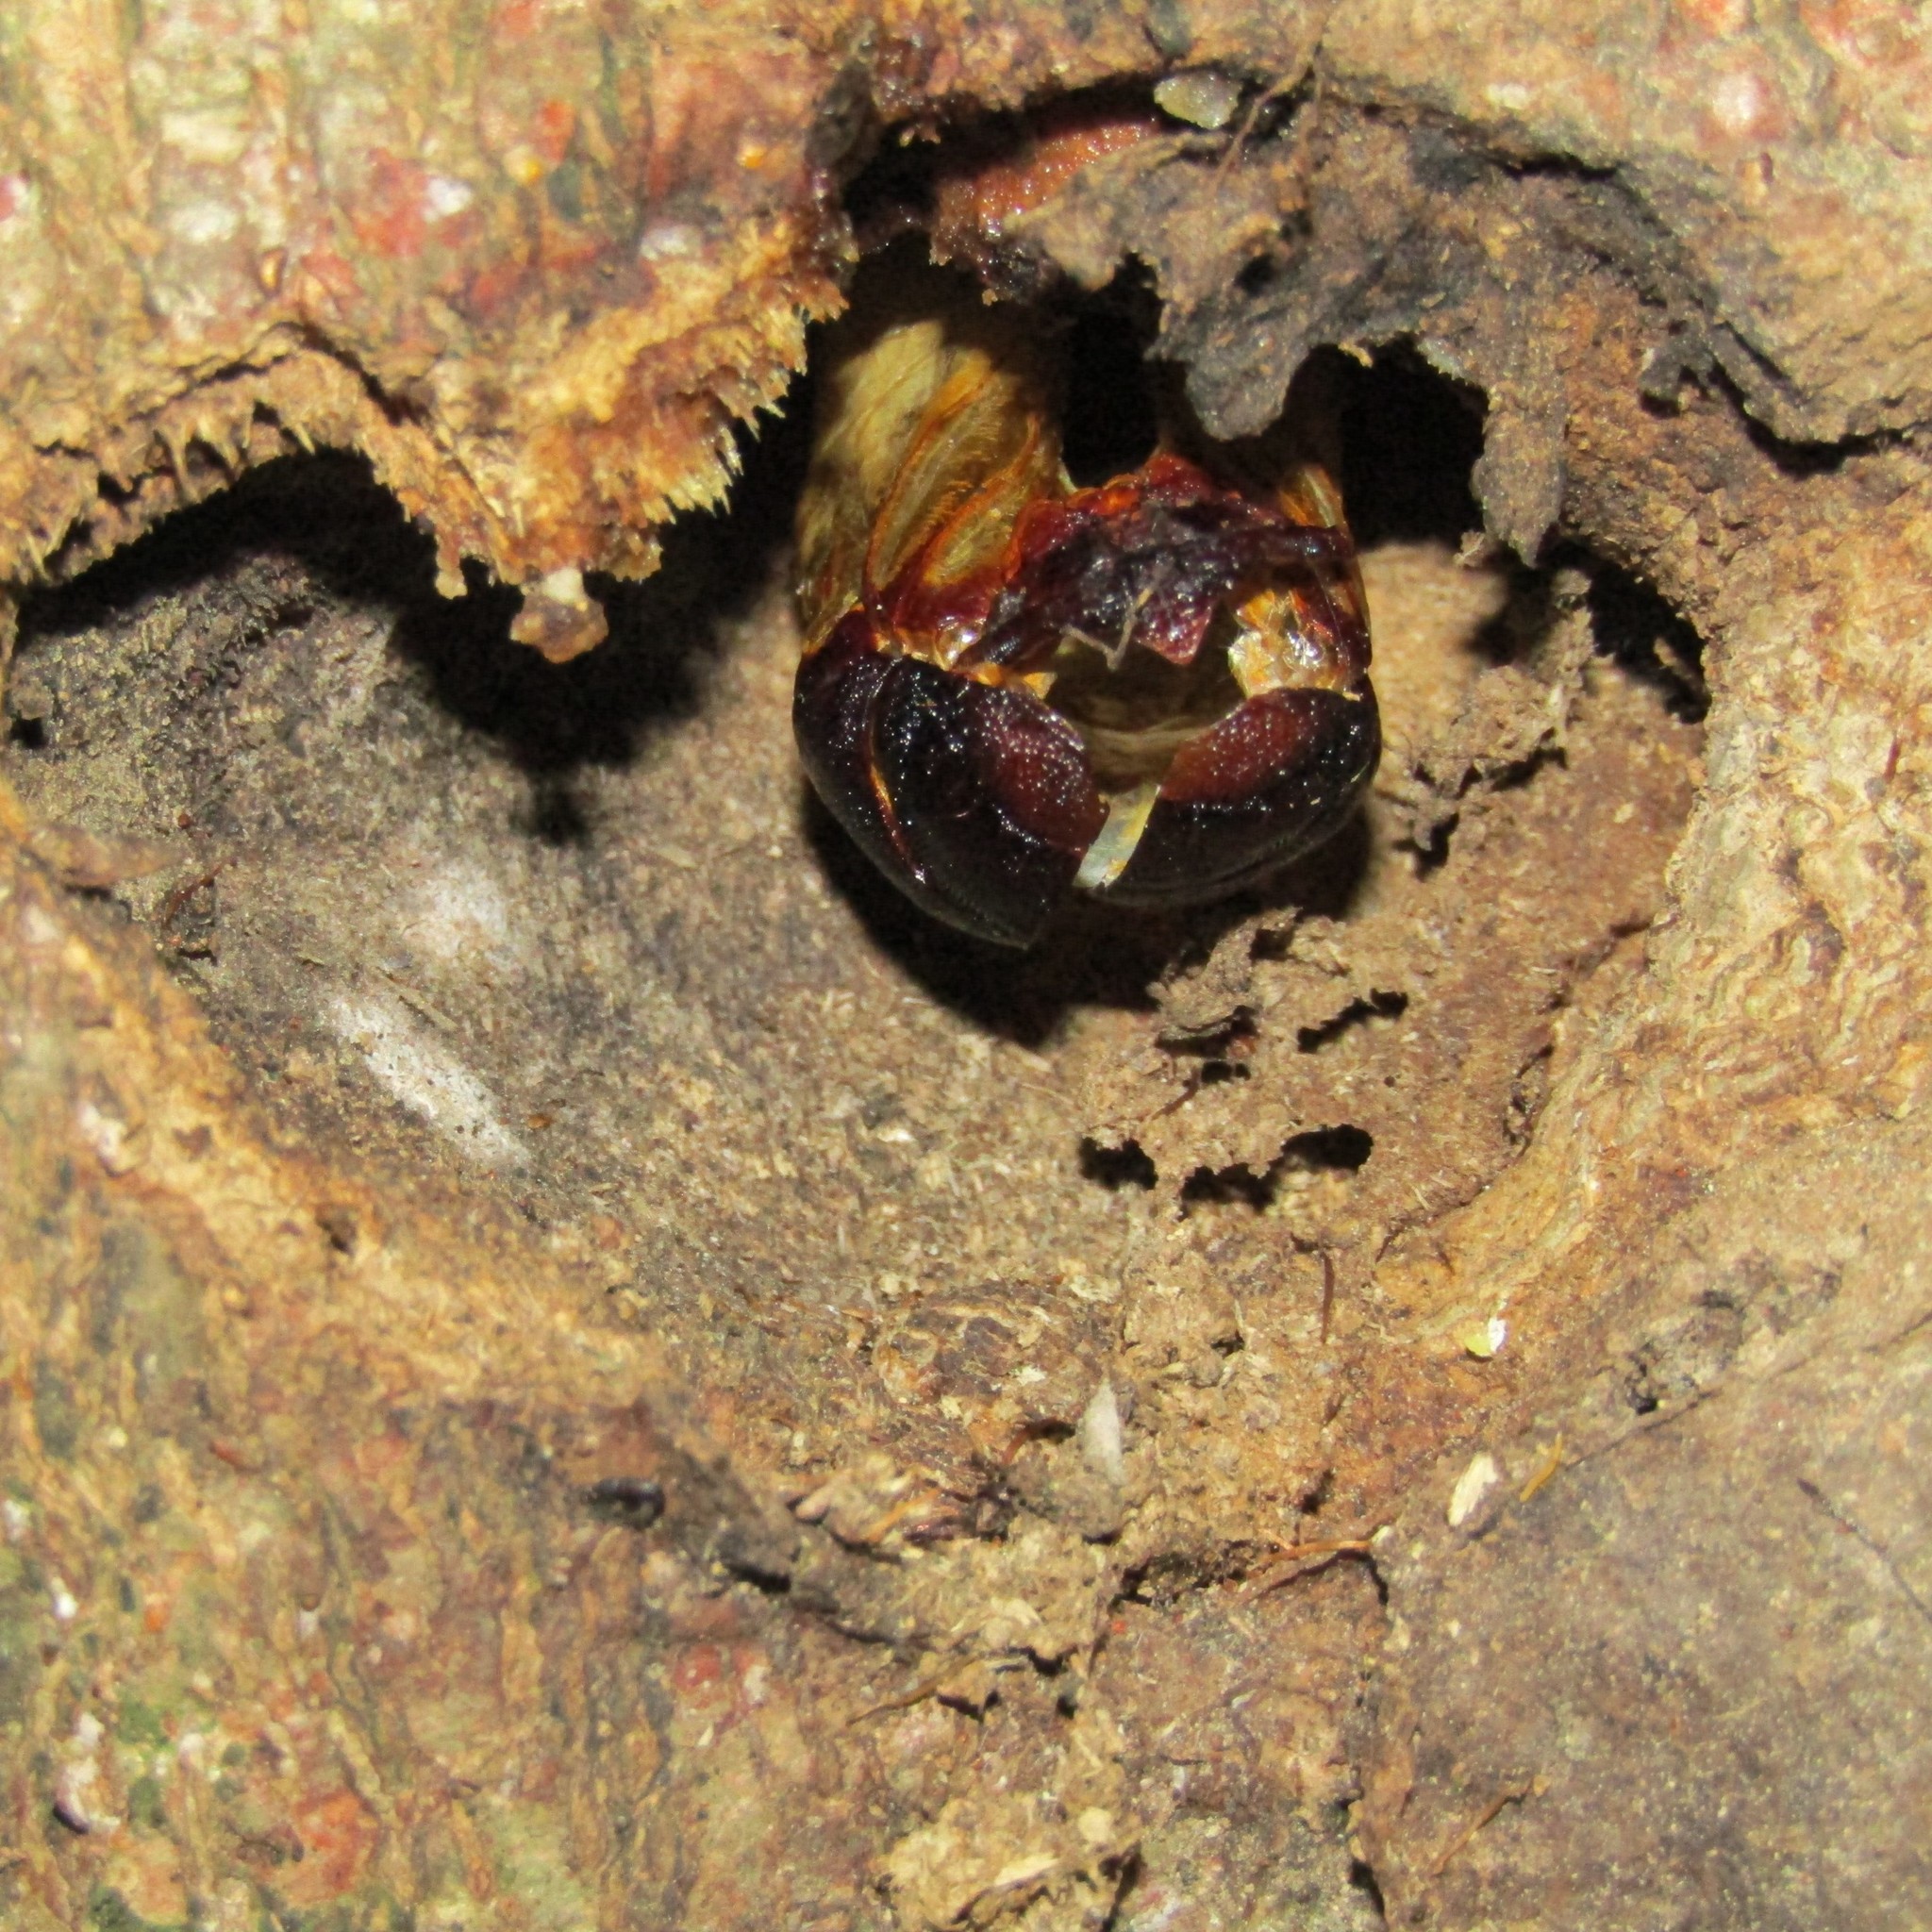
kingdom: Animalia
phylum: Arthropoda
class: Insecta
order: Lepidoptera
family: Hepialidae
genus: Aenetus
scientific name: Aenetus virescens
